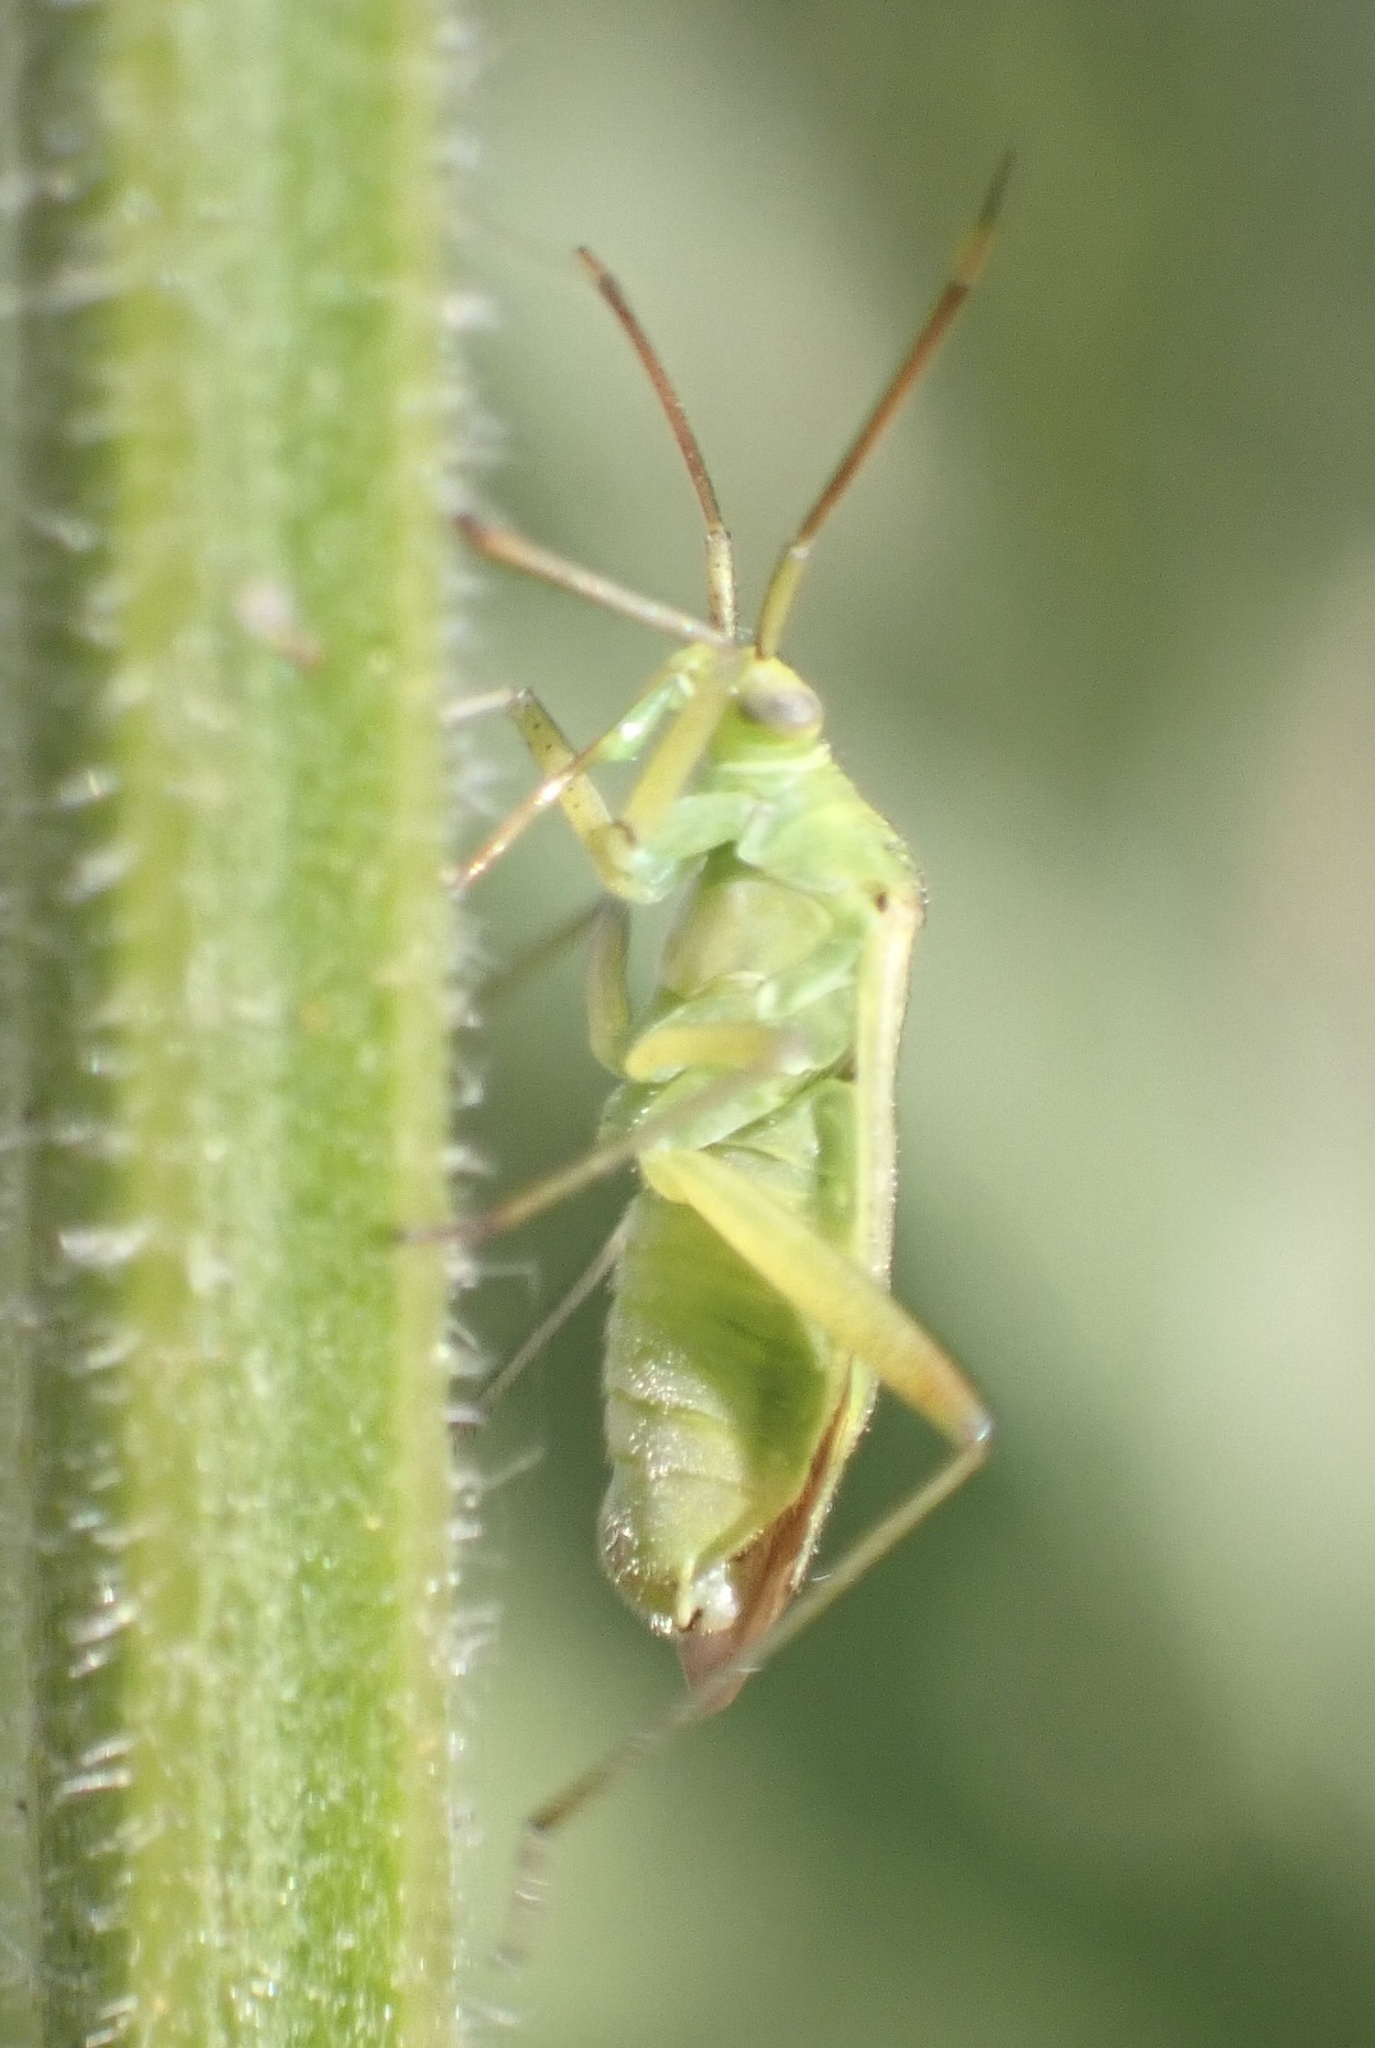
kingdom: Animalia
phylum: Arthropoda
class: Insecta
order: Hemiptera
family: Miridae
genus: Closterotomus
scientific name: Closterotomus norvegicus
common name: Plant bug
